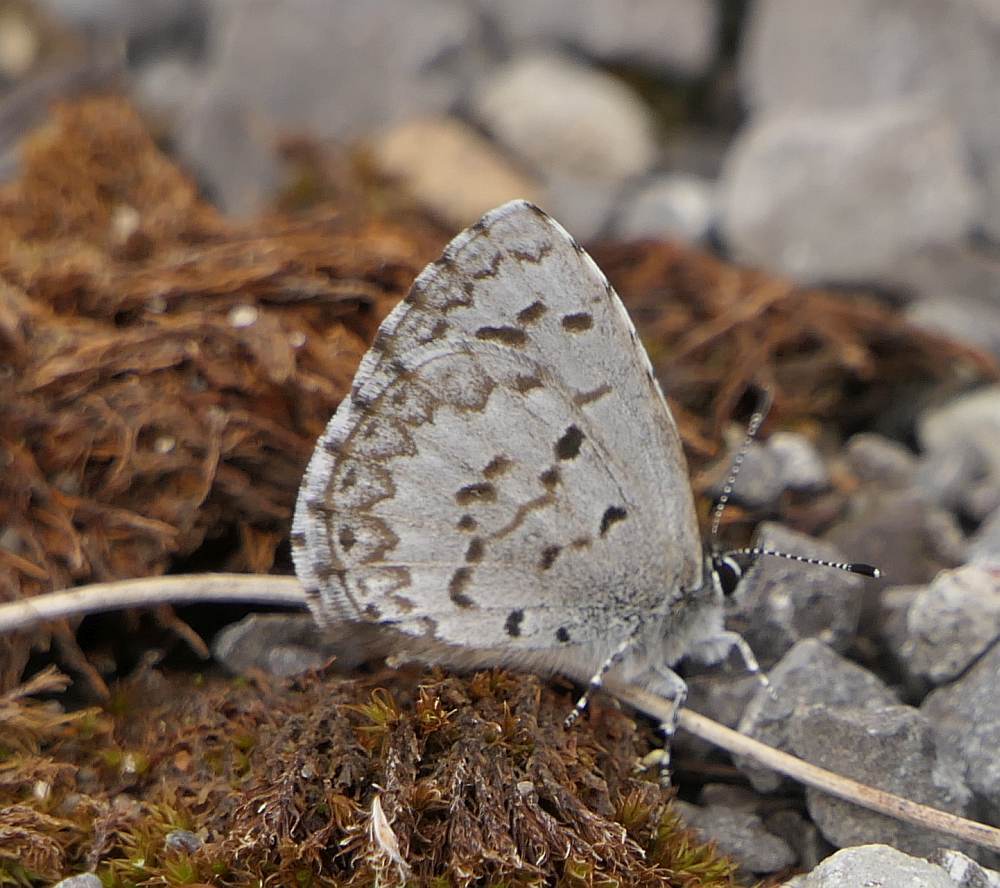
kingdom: Animalia
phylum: Arthropoda
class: Insecta
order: Lepidoptera
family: Lycaenidae
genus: Celastrina
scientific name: Celastrina lucia
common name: Lucia azure
